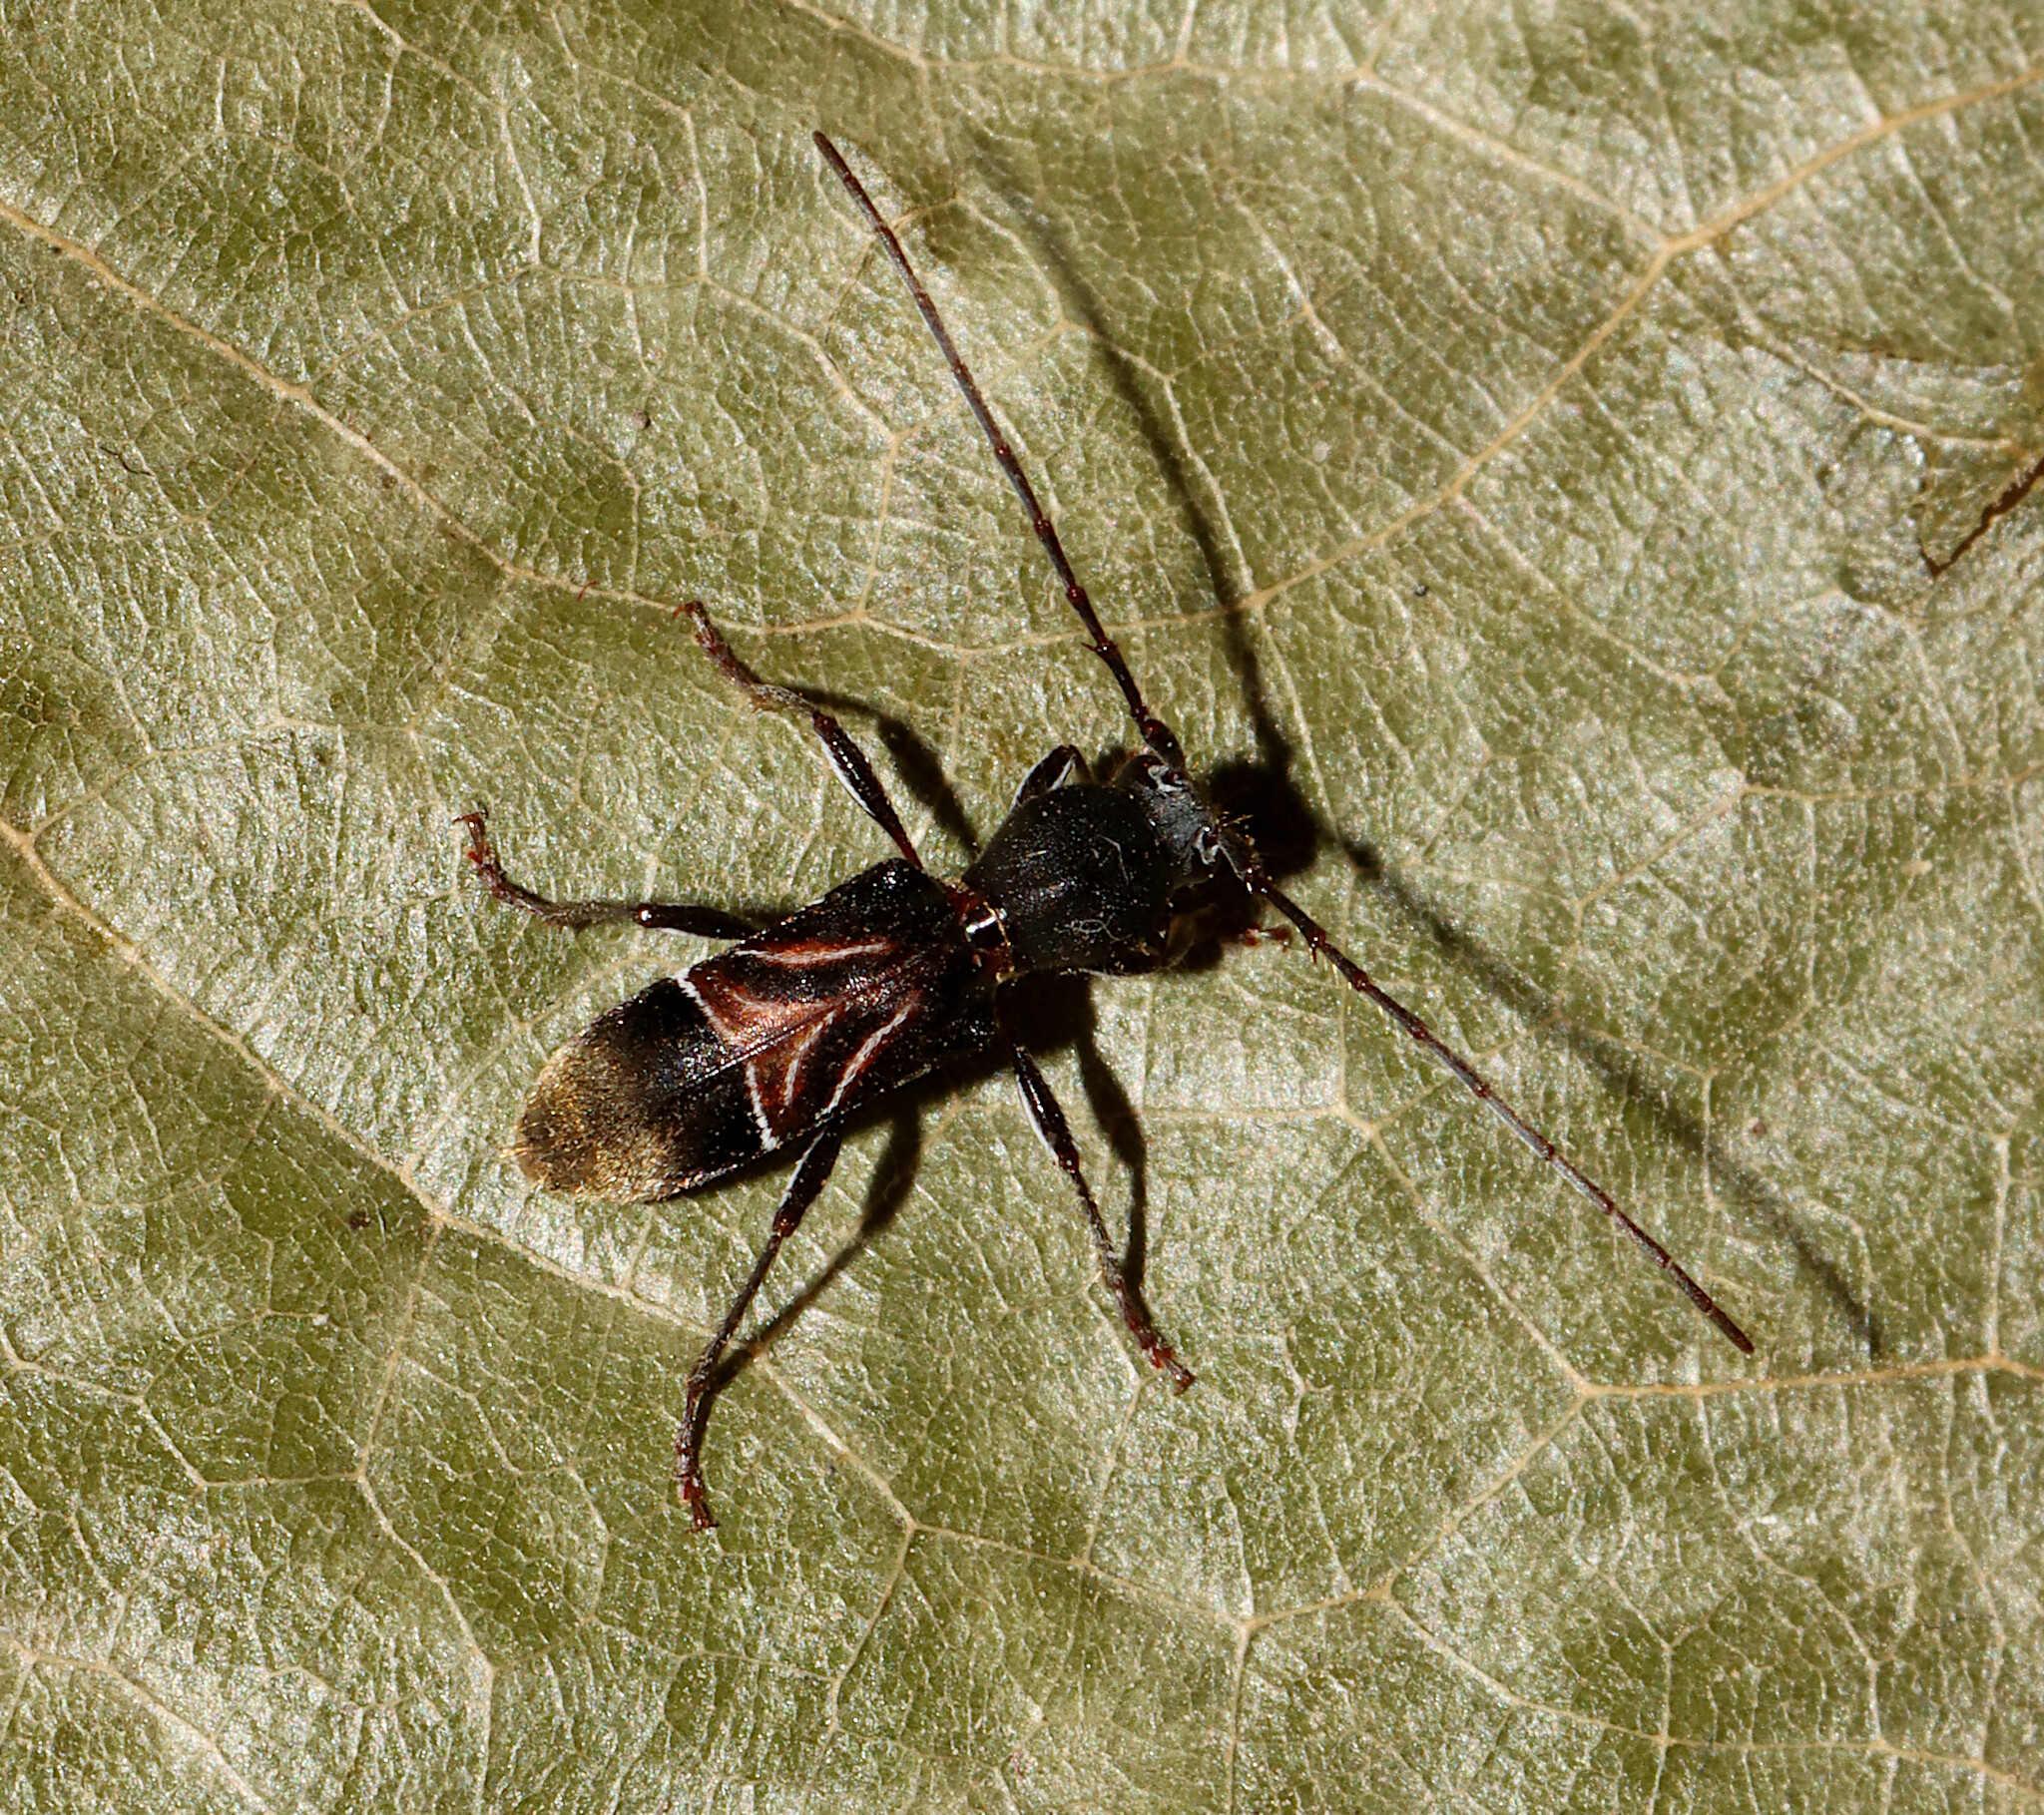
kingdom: Animalia
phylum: Arthropoda
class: Insecta
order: Coleoptera
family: Cerambycidae
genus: Cyrtophorus
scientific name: Cyrtophorus verrucosus
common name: Ant-like longhorn beetle
